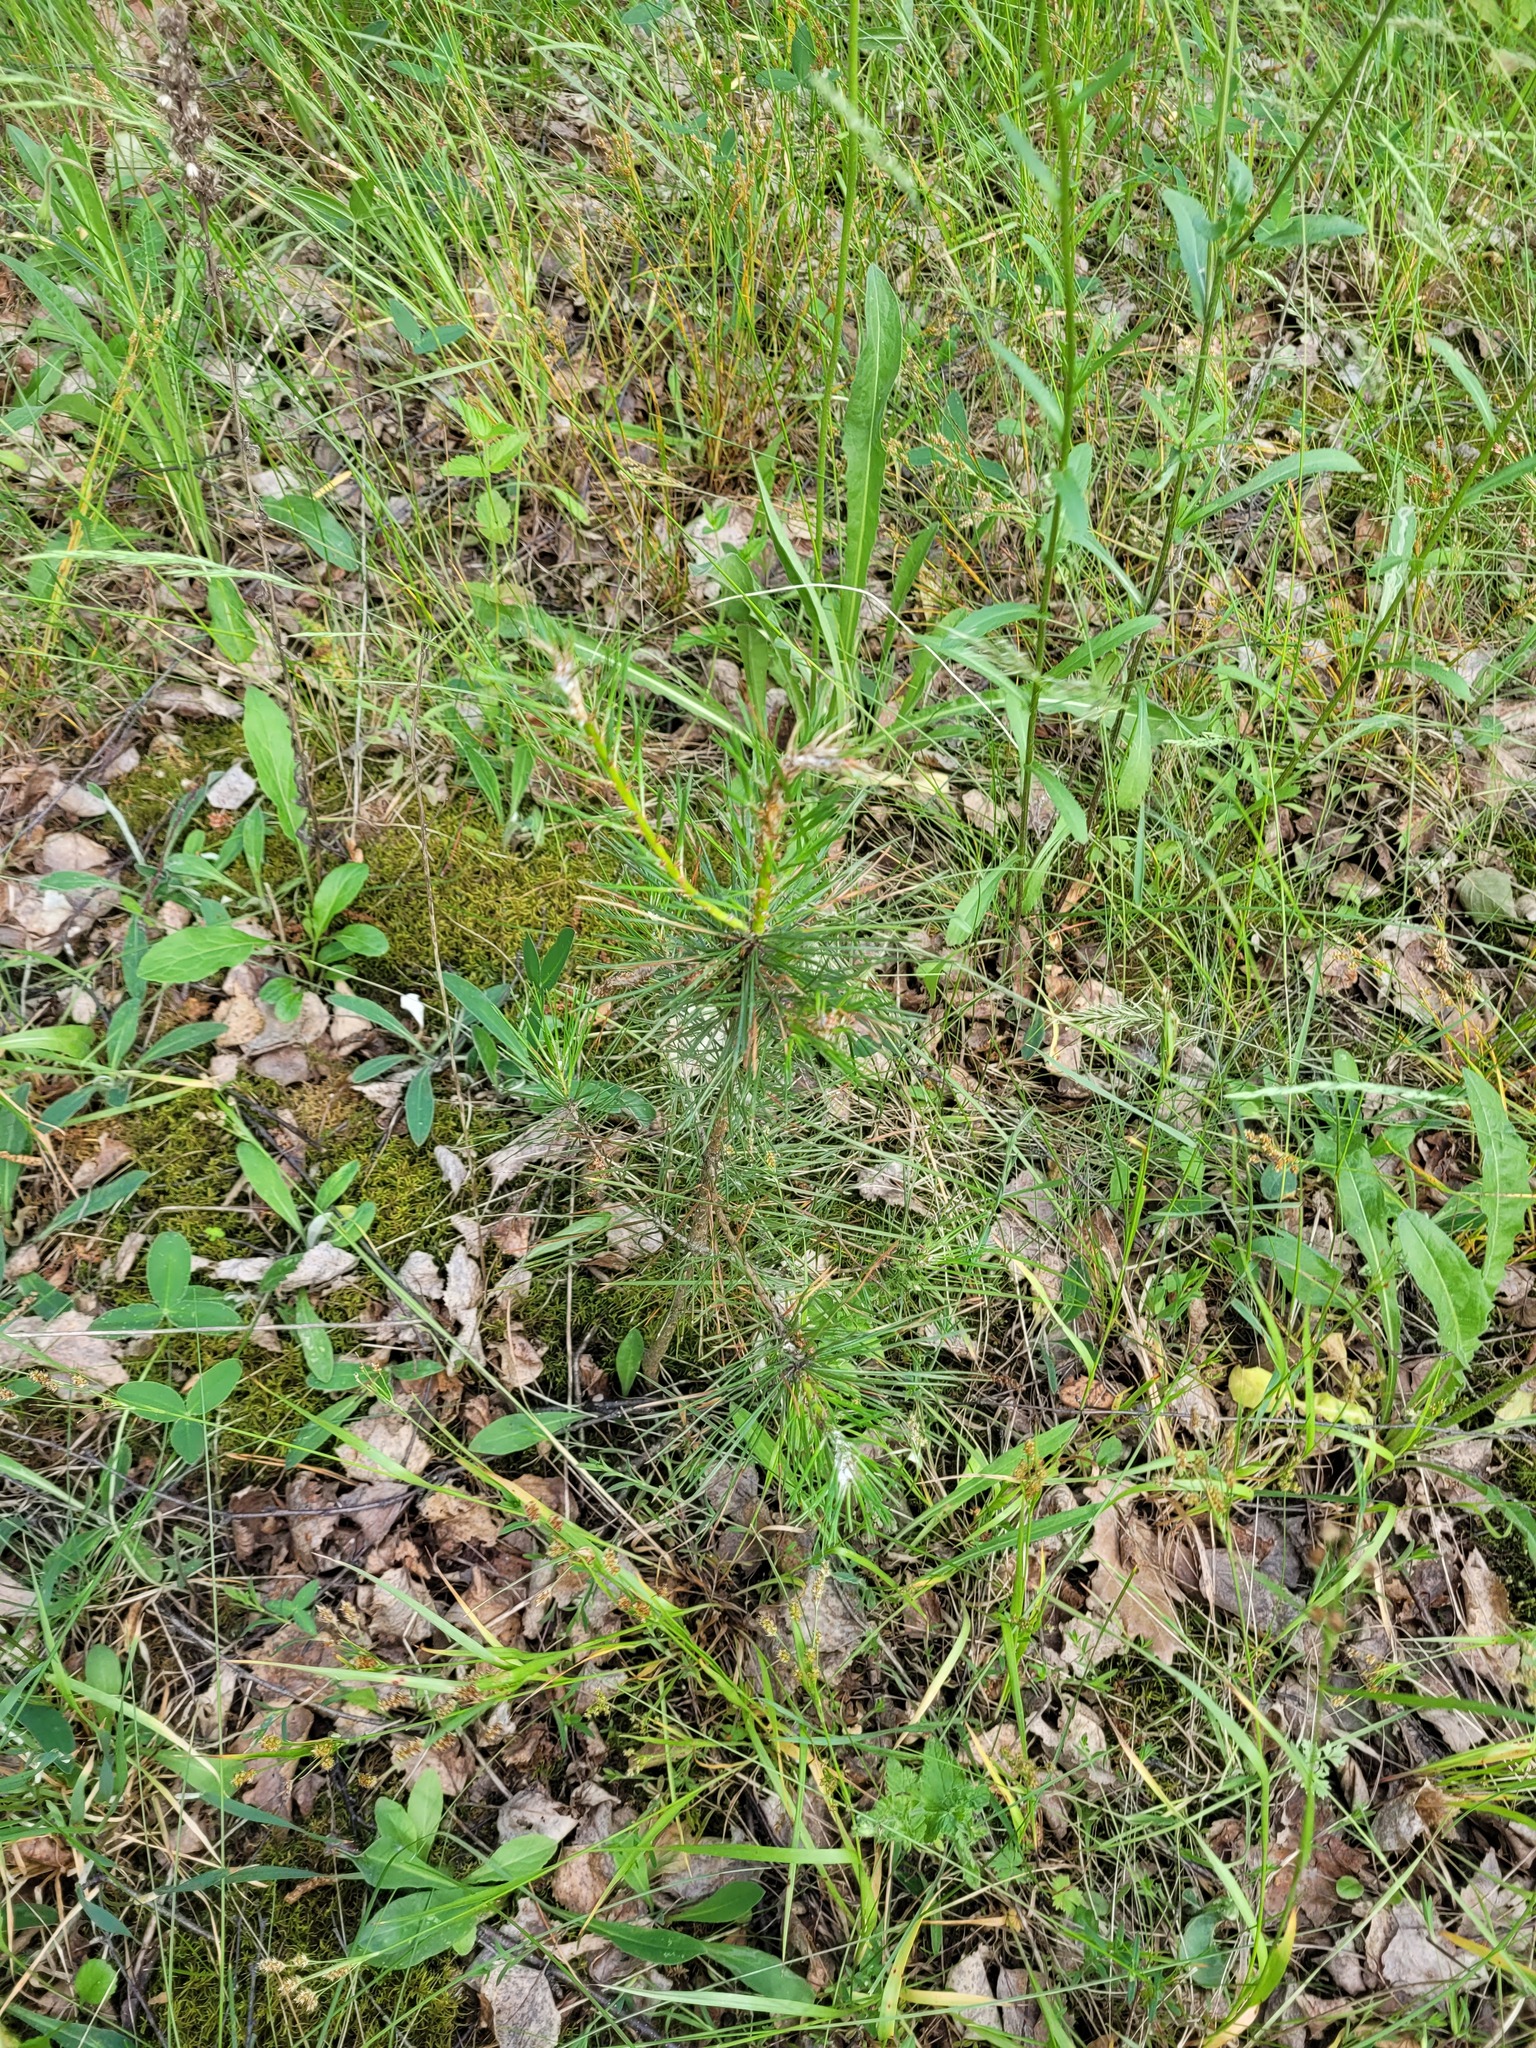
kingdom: Plantae
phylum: Tracheophyta
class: Pinopsida
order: Pinales
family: Pinaceae
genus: Pinus
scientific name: Pinus sylvestris
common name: Scots pine
